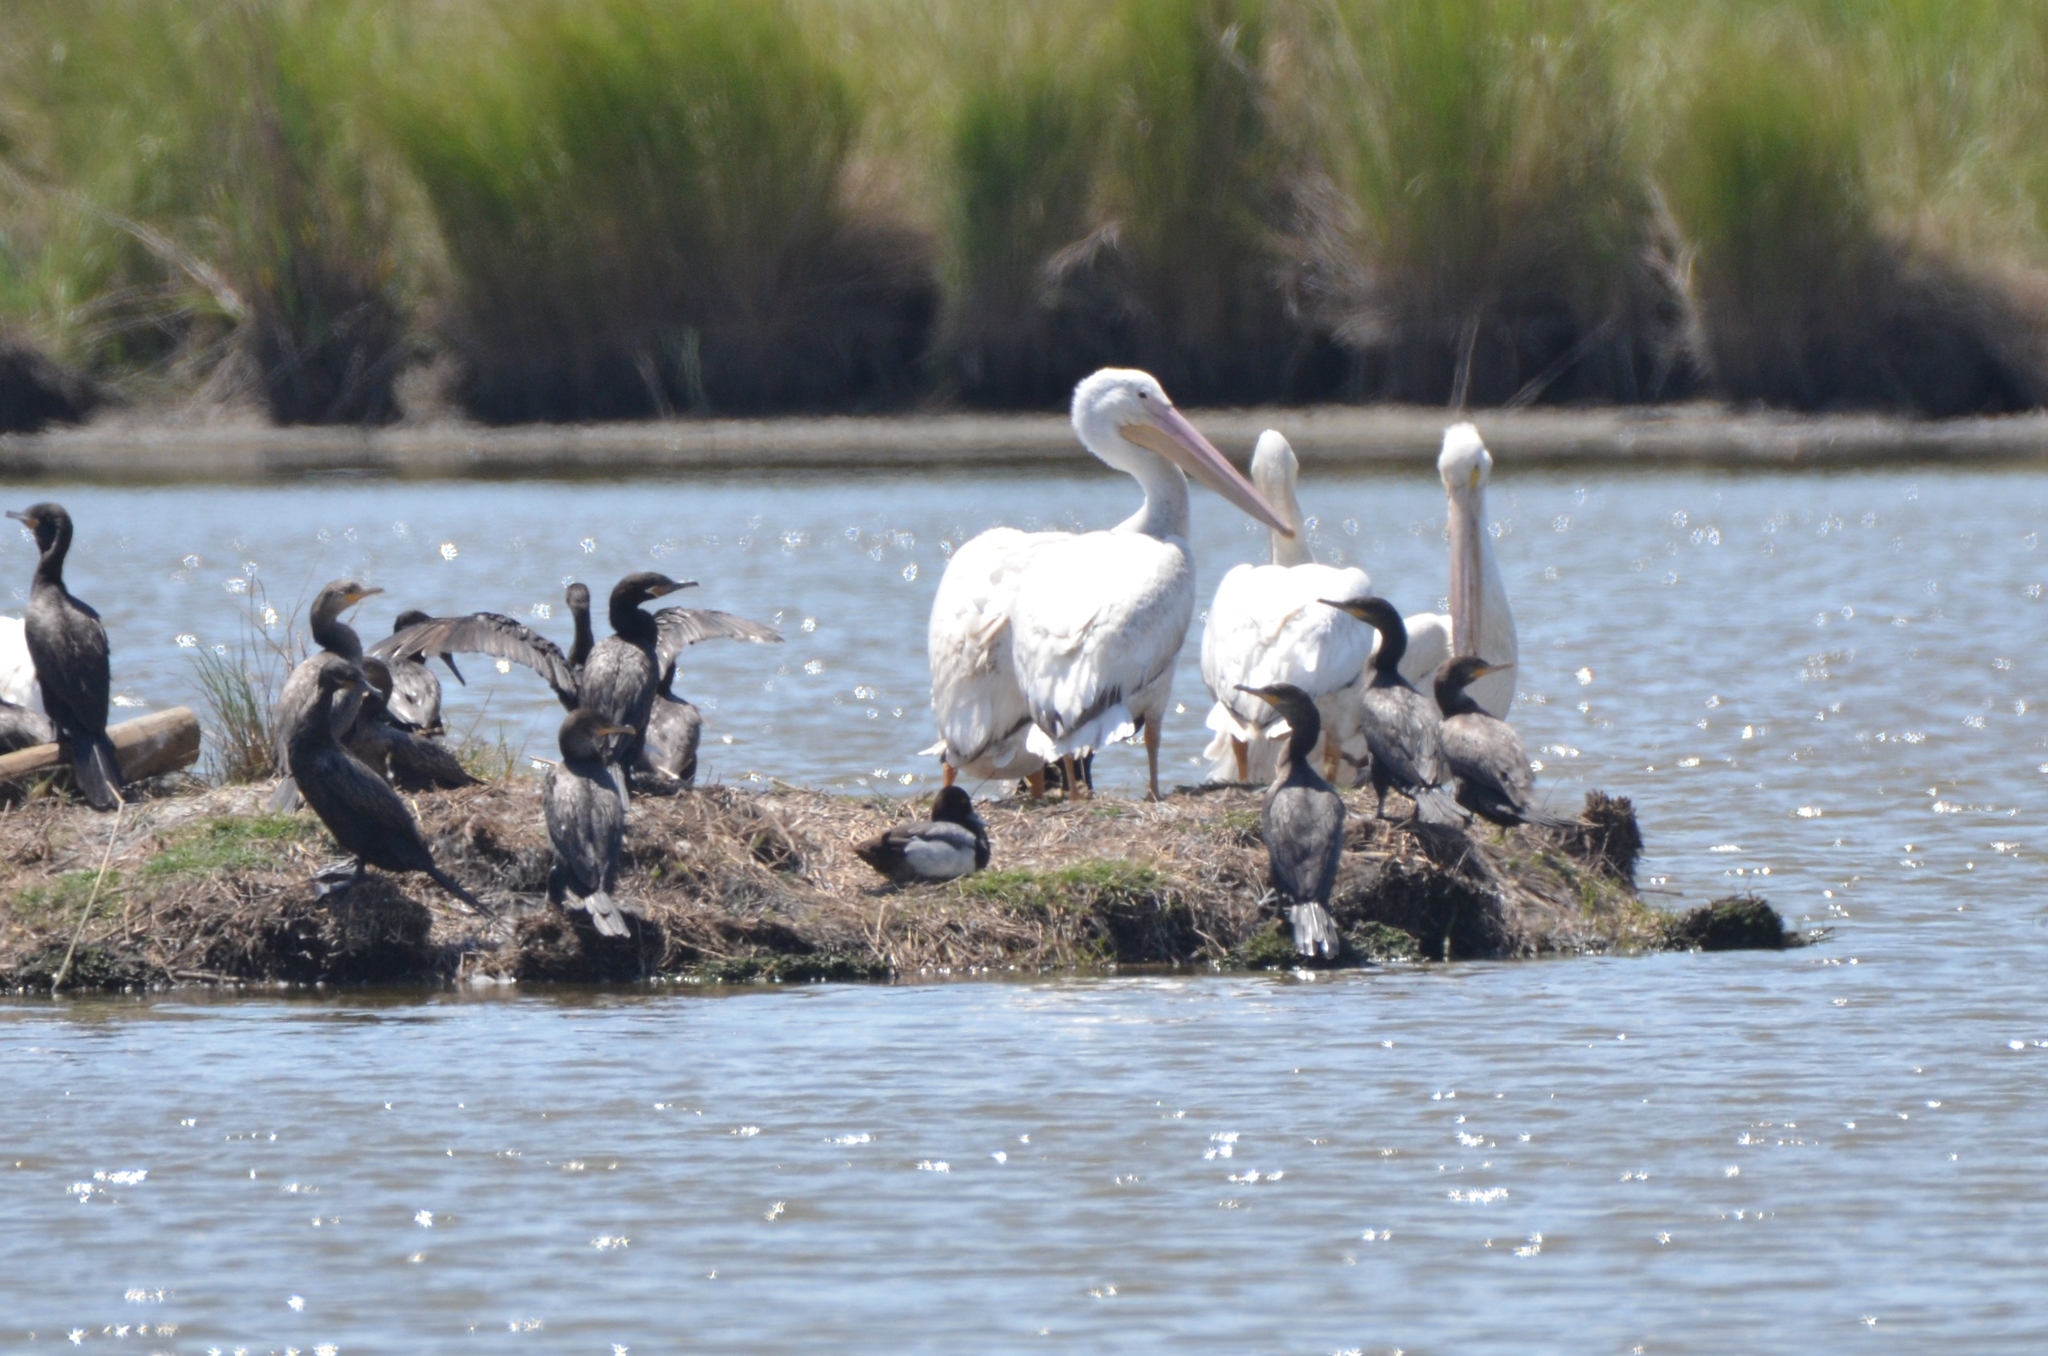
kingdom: Animalia
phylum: Chordata
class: Aves
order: Pelecaniformes
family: Pelecanidae
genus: Pelecanus
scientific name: Pelecanus erythrorhynchos
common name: American white pelican
